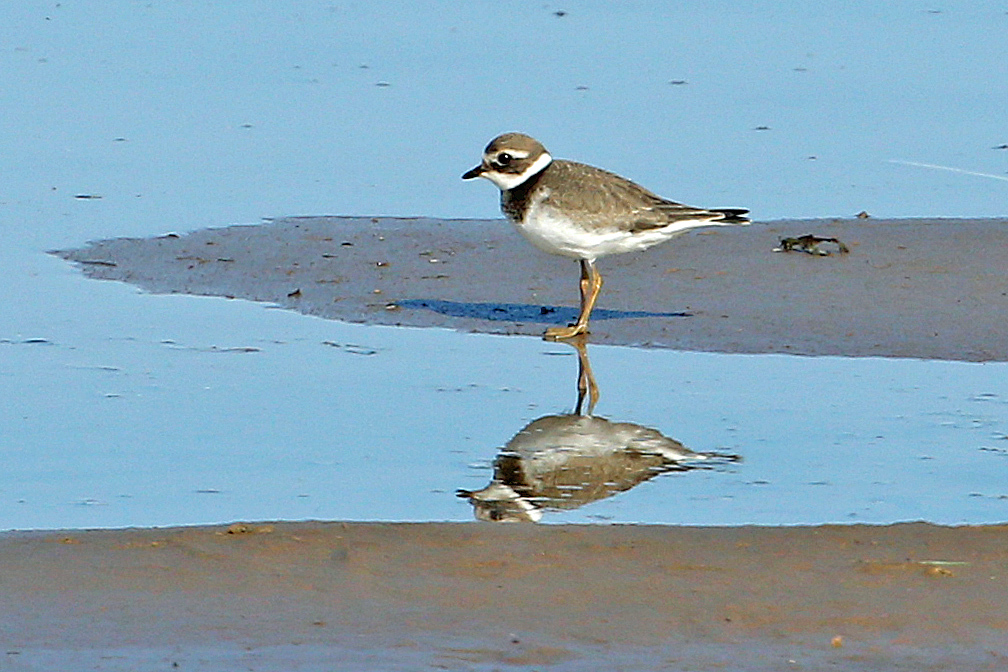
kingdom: Animalia
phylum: Chordata
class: Aves
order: Charadriiformes
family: Charadriidae
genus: Charadrius
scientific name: Charadrius hiaticula
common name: Common ringed plover
